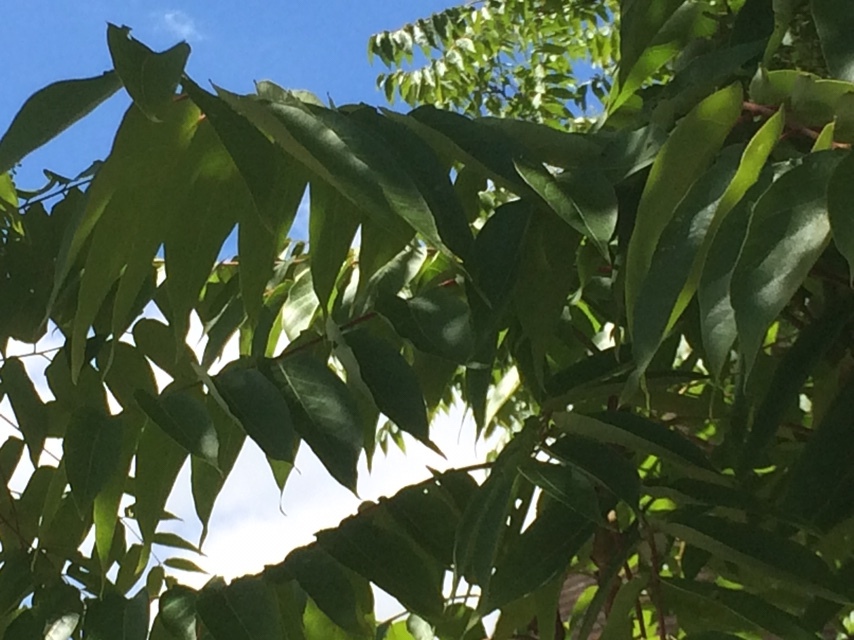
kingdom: Plantae
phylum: Tracheophyta
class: Magnoliopsida
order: Sapindales
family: Simaroubaceae
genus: Ailanthus
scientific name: Ailanthus altissima
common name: Tree-of-heaven
